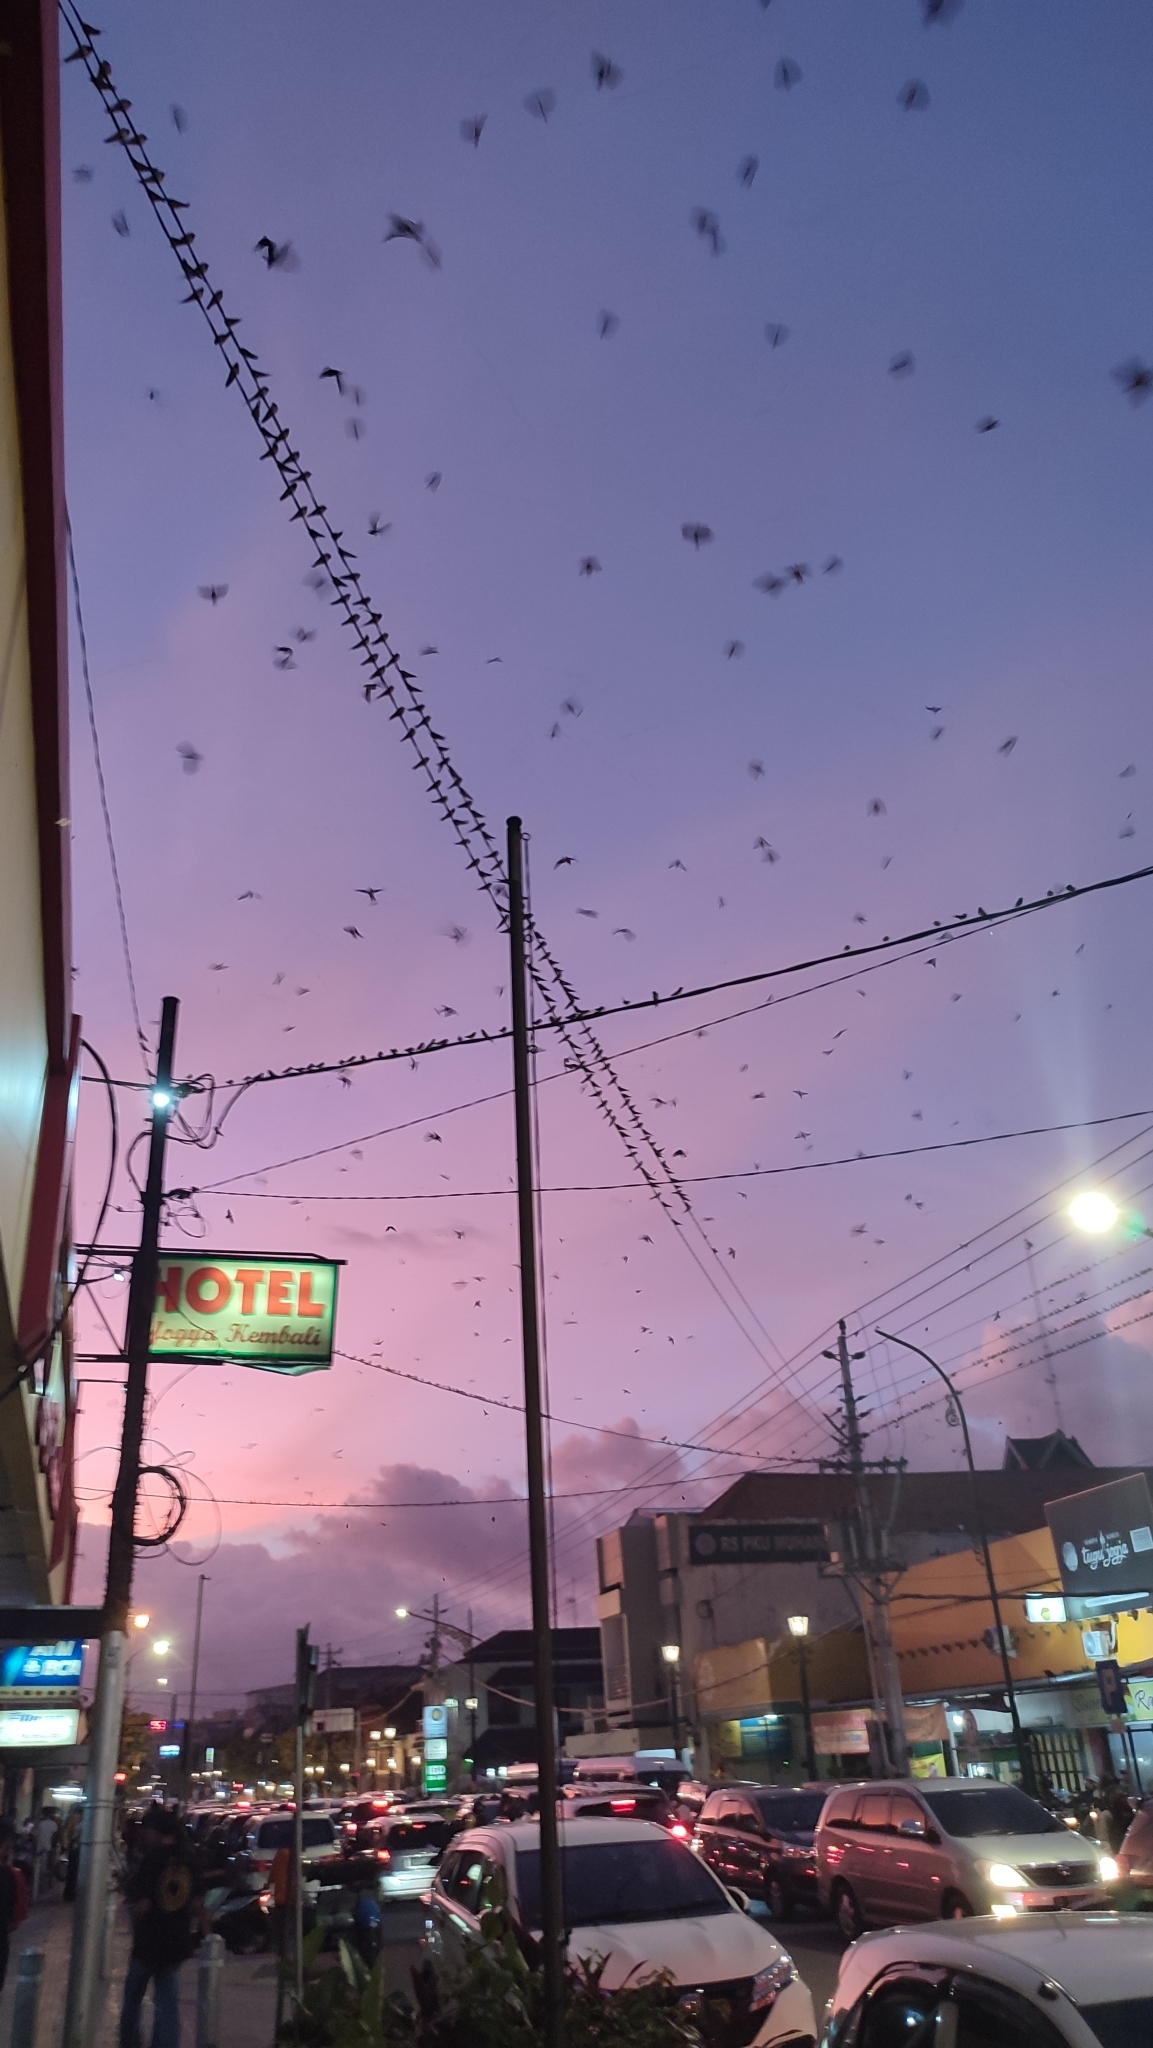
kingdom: Animalia
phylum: Chordata
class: Aves
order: Passeriformes
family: Hirundinidae
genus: Hirundo
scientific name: Hirundo rustica
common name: Barn swallow
